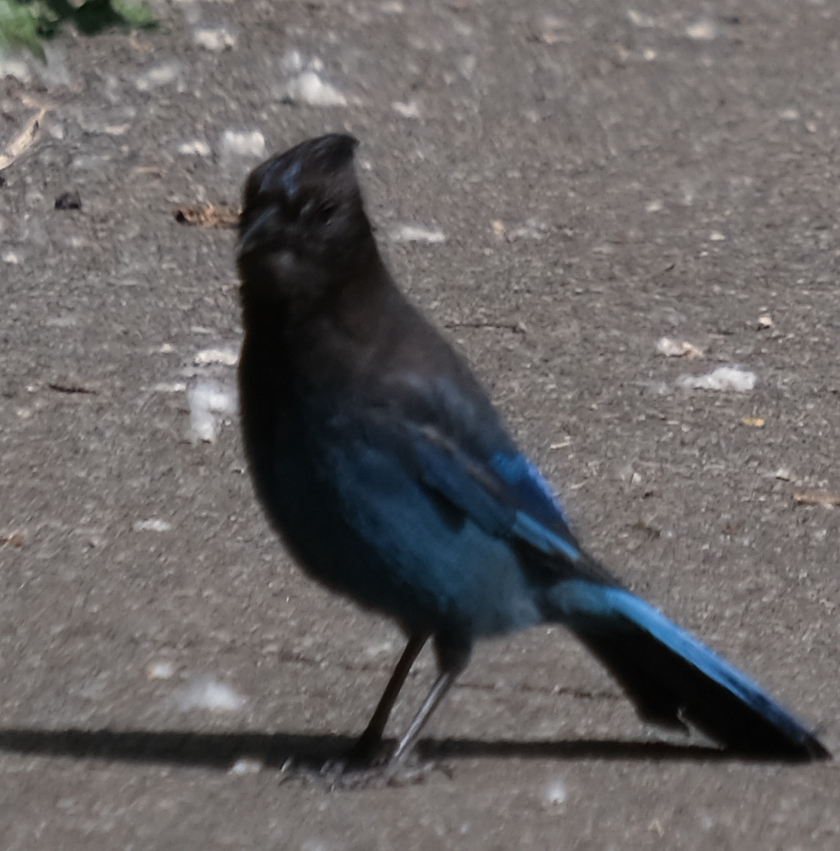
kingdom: Animalia
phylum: Chordata
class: Aves
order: Passeriformes
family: Corvidae
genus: Cyanocitta
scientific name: Cyanocitta stelleri
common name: Steller's jay
